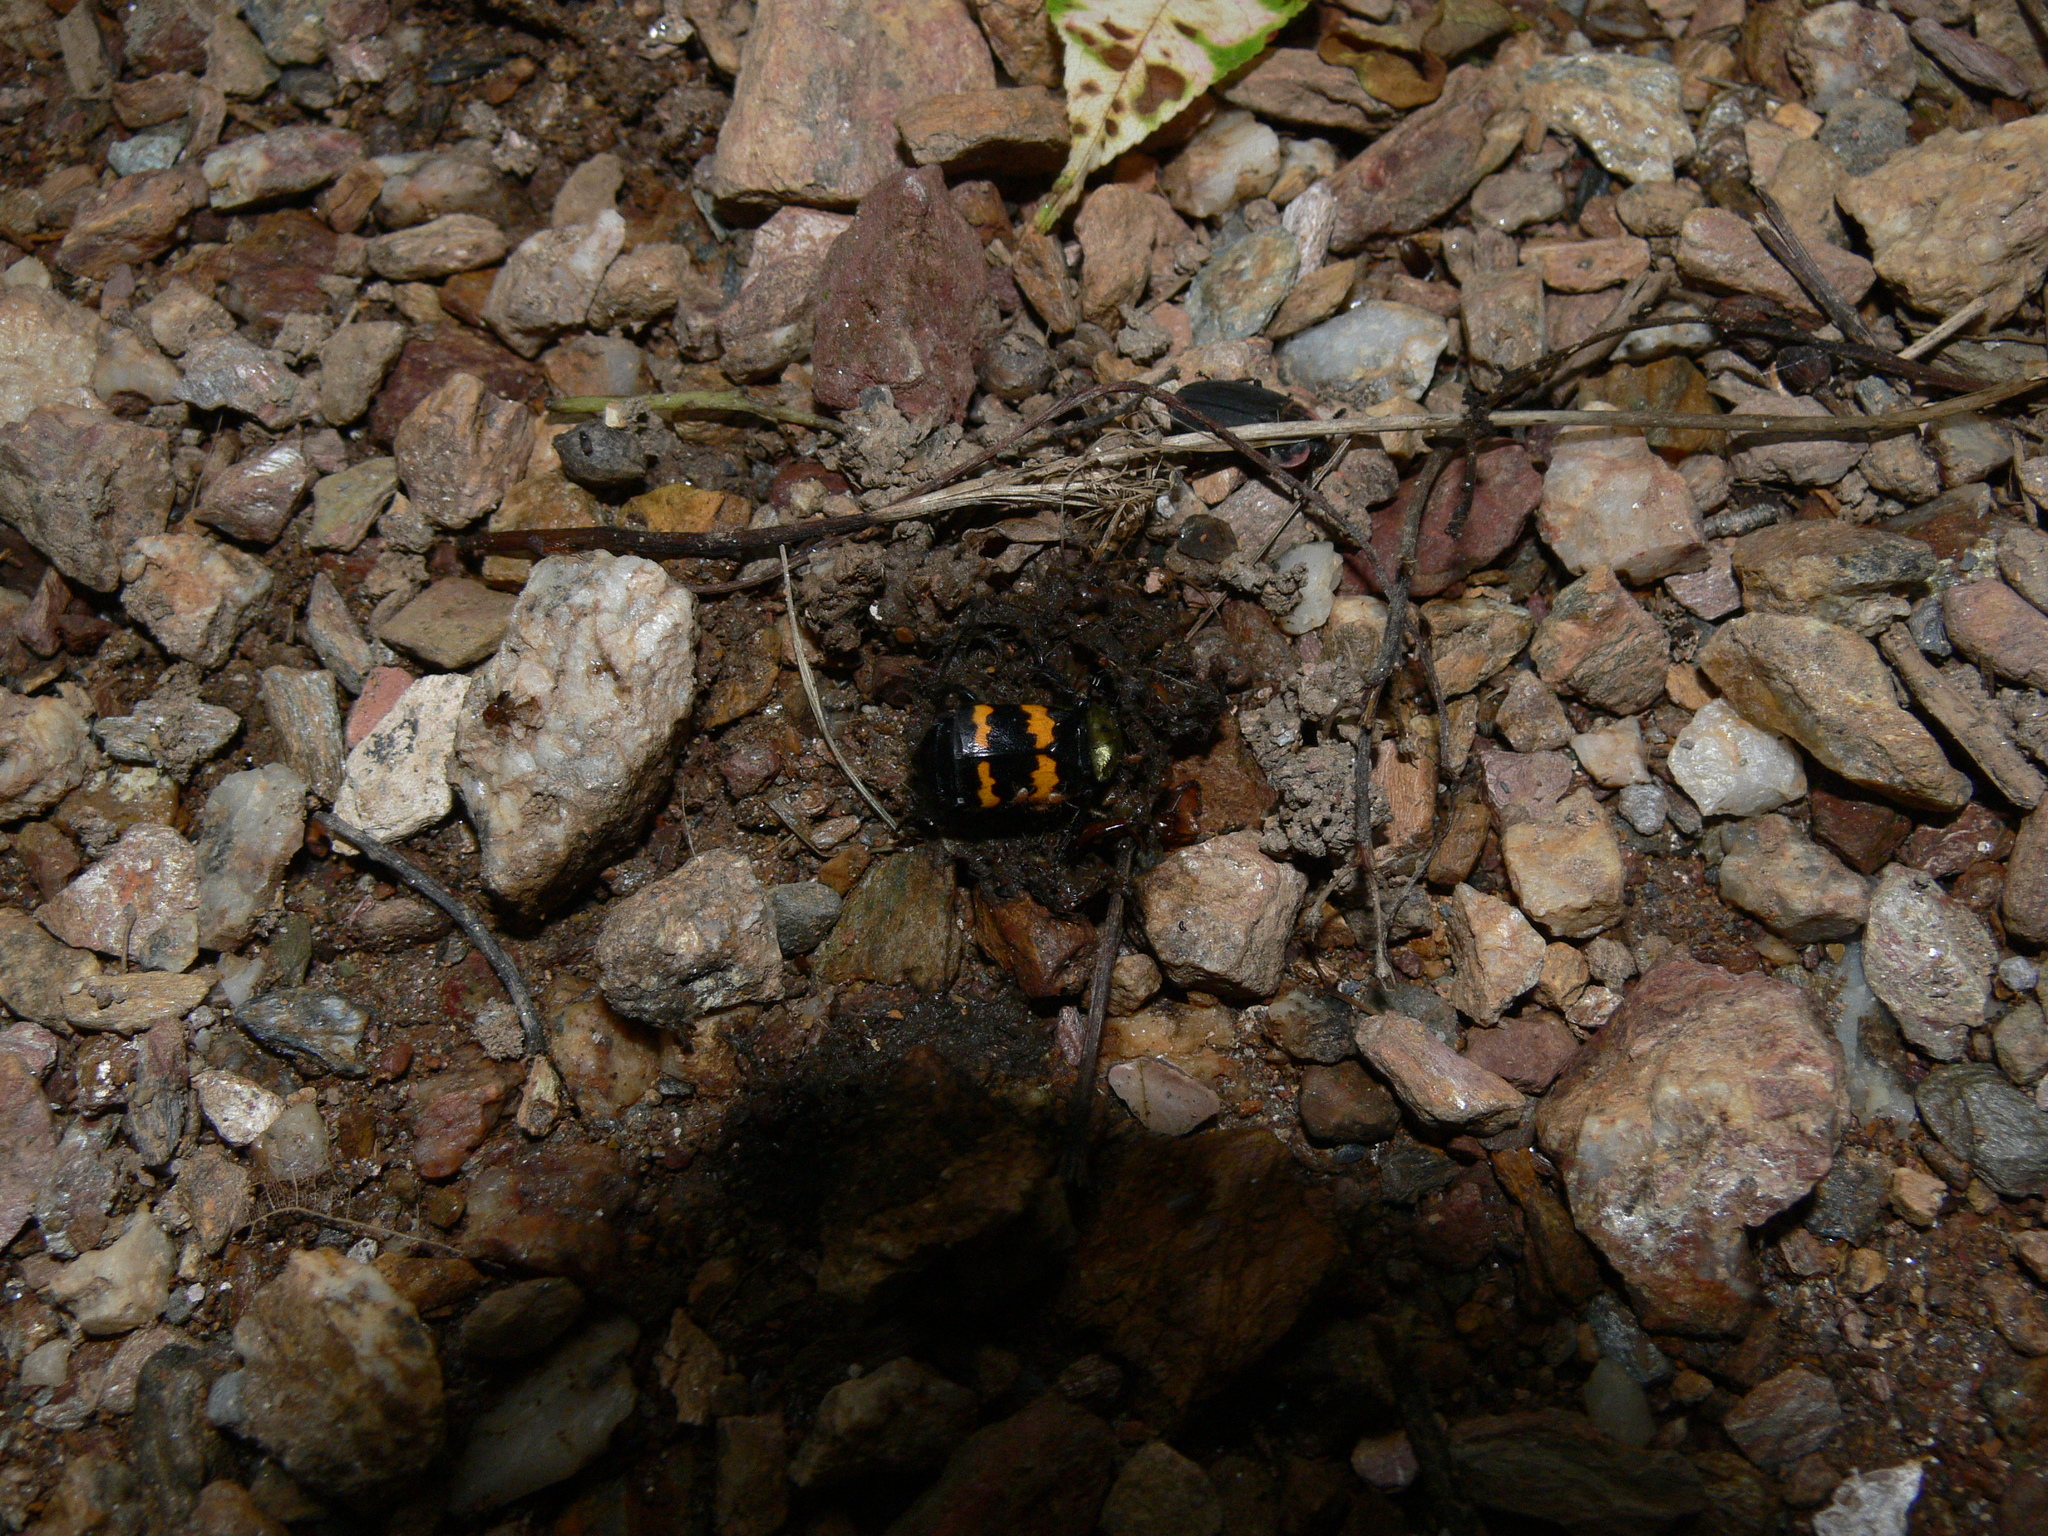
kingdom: Animalia
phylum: Arthropoda
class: Insecta
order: Coleoptera
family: Staphylinidae
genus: Nicrophorus
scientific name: Nicrophorus tomentosus
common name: Tomentose burying beetle
